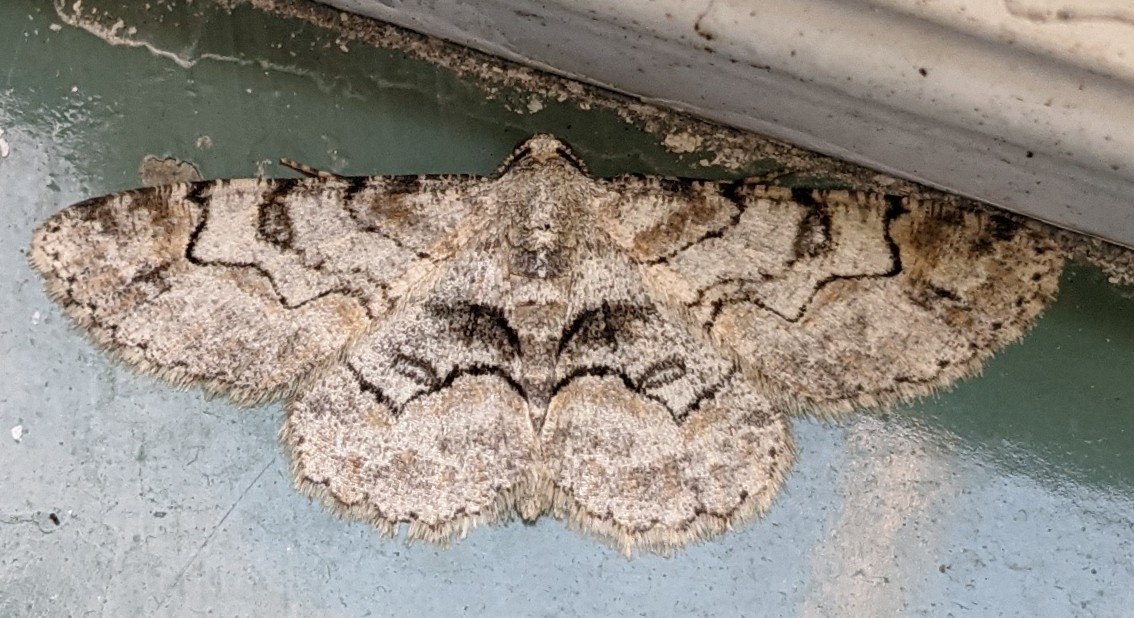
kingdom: Animalia
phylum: Arthropoda
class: Insecta
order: Lepidoptera
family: Geometridae
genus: Iridopsis
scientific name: Iridopsis larvaria
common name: Bent-line gray
